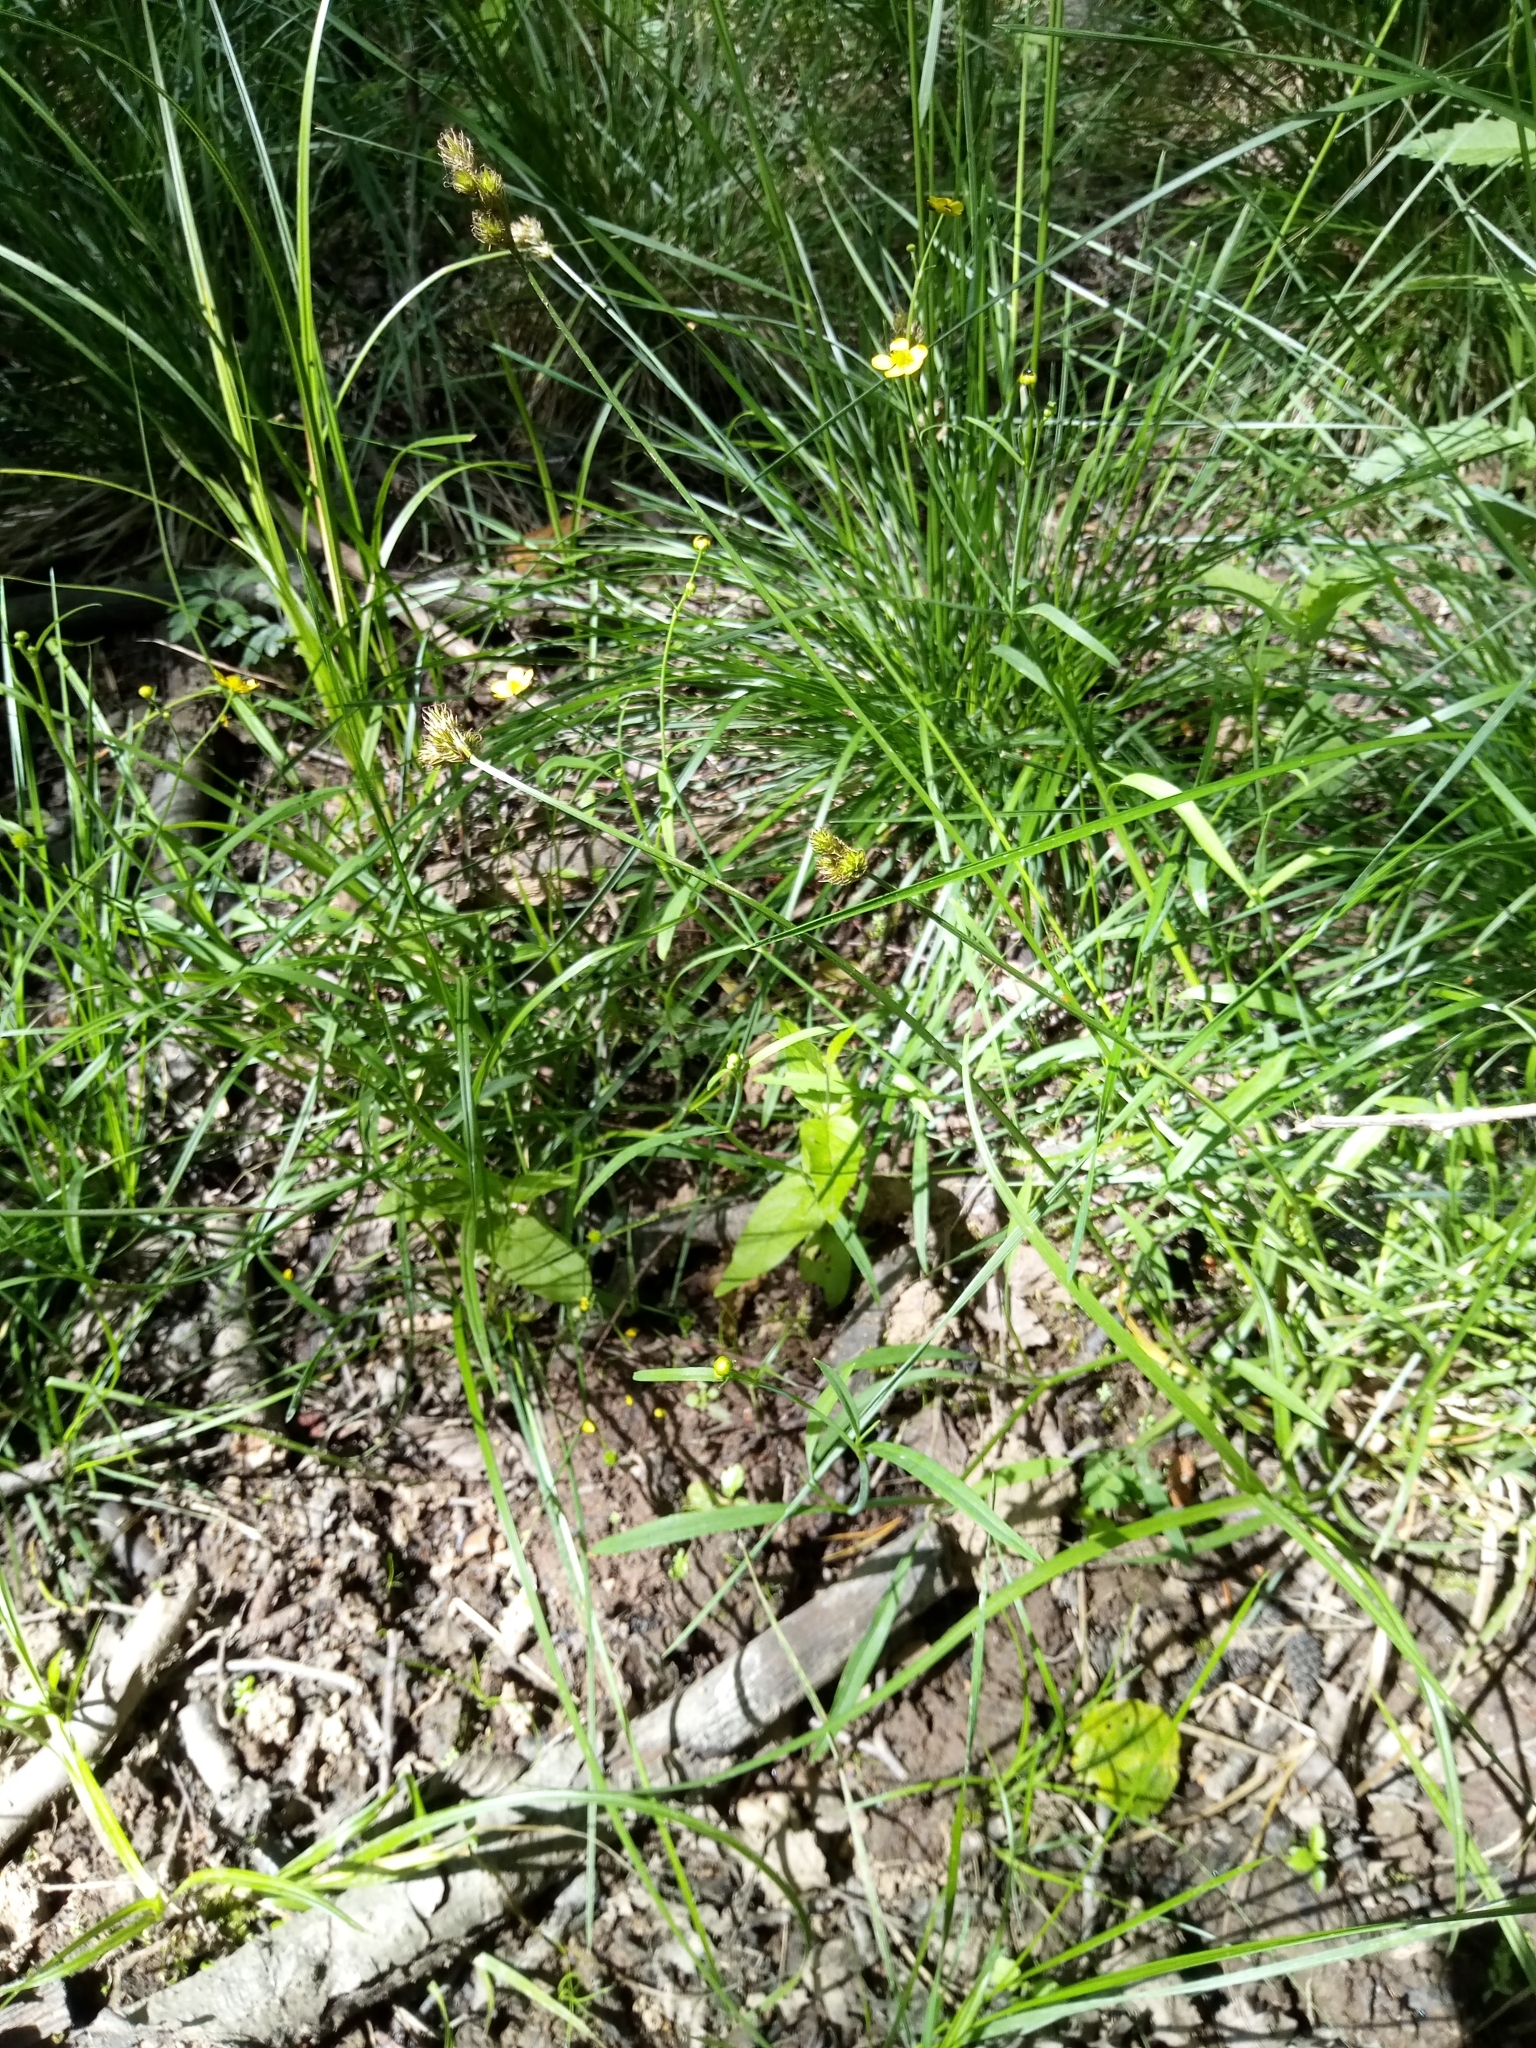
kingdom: Plantae
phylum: Tracheophyta
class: Liliopsida
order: Poales
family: Cyperaceae
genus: Carex
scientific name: Carex leporina
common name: Oval sedge
